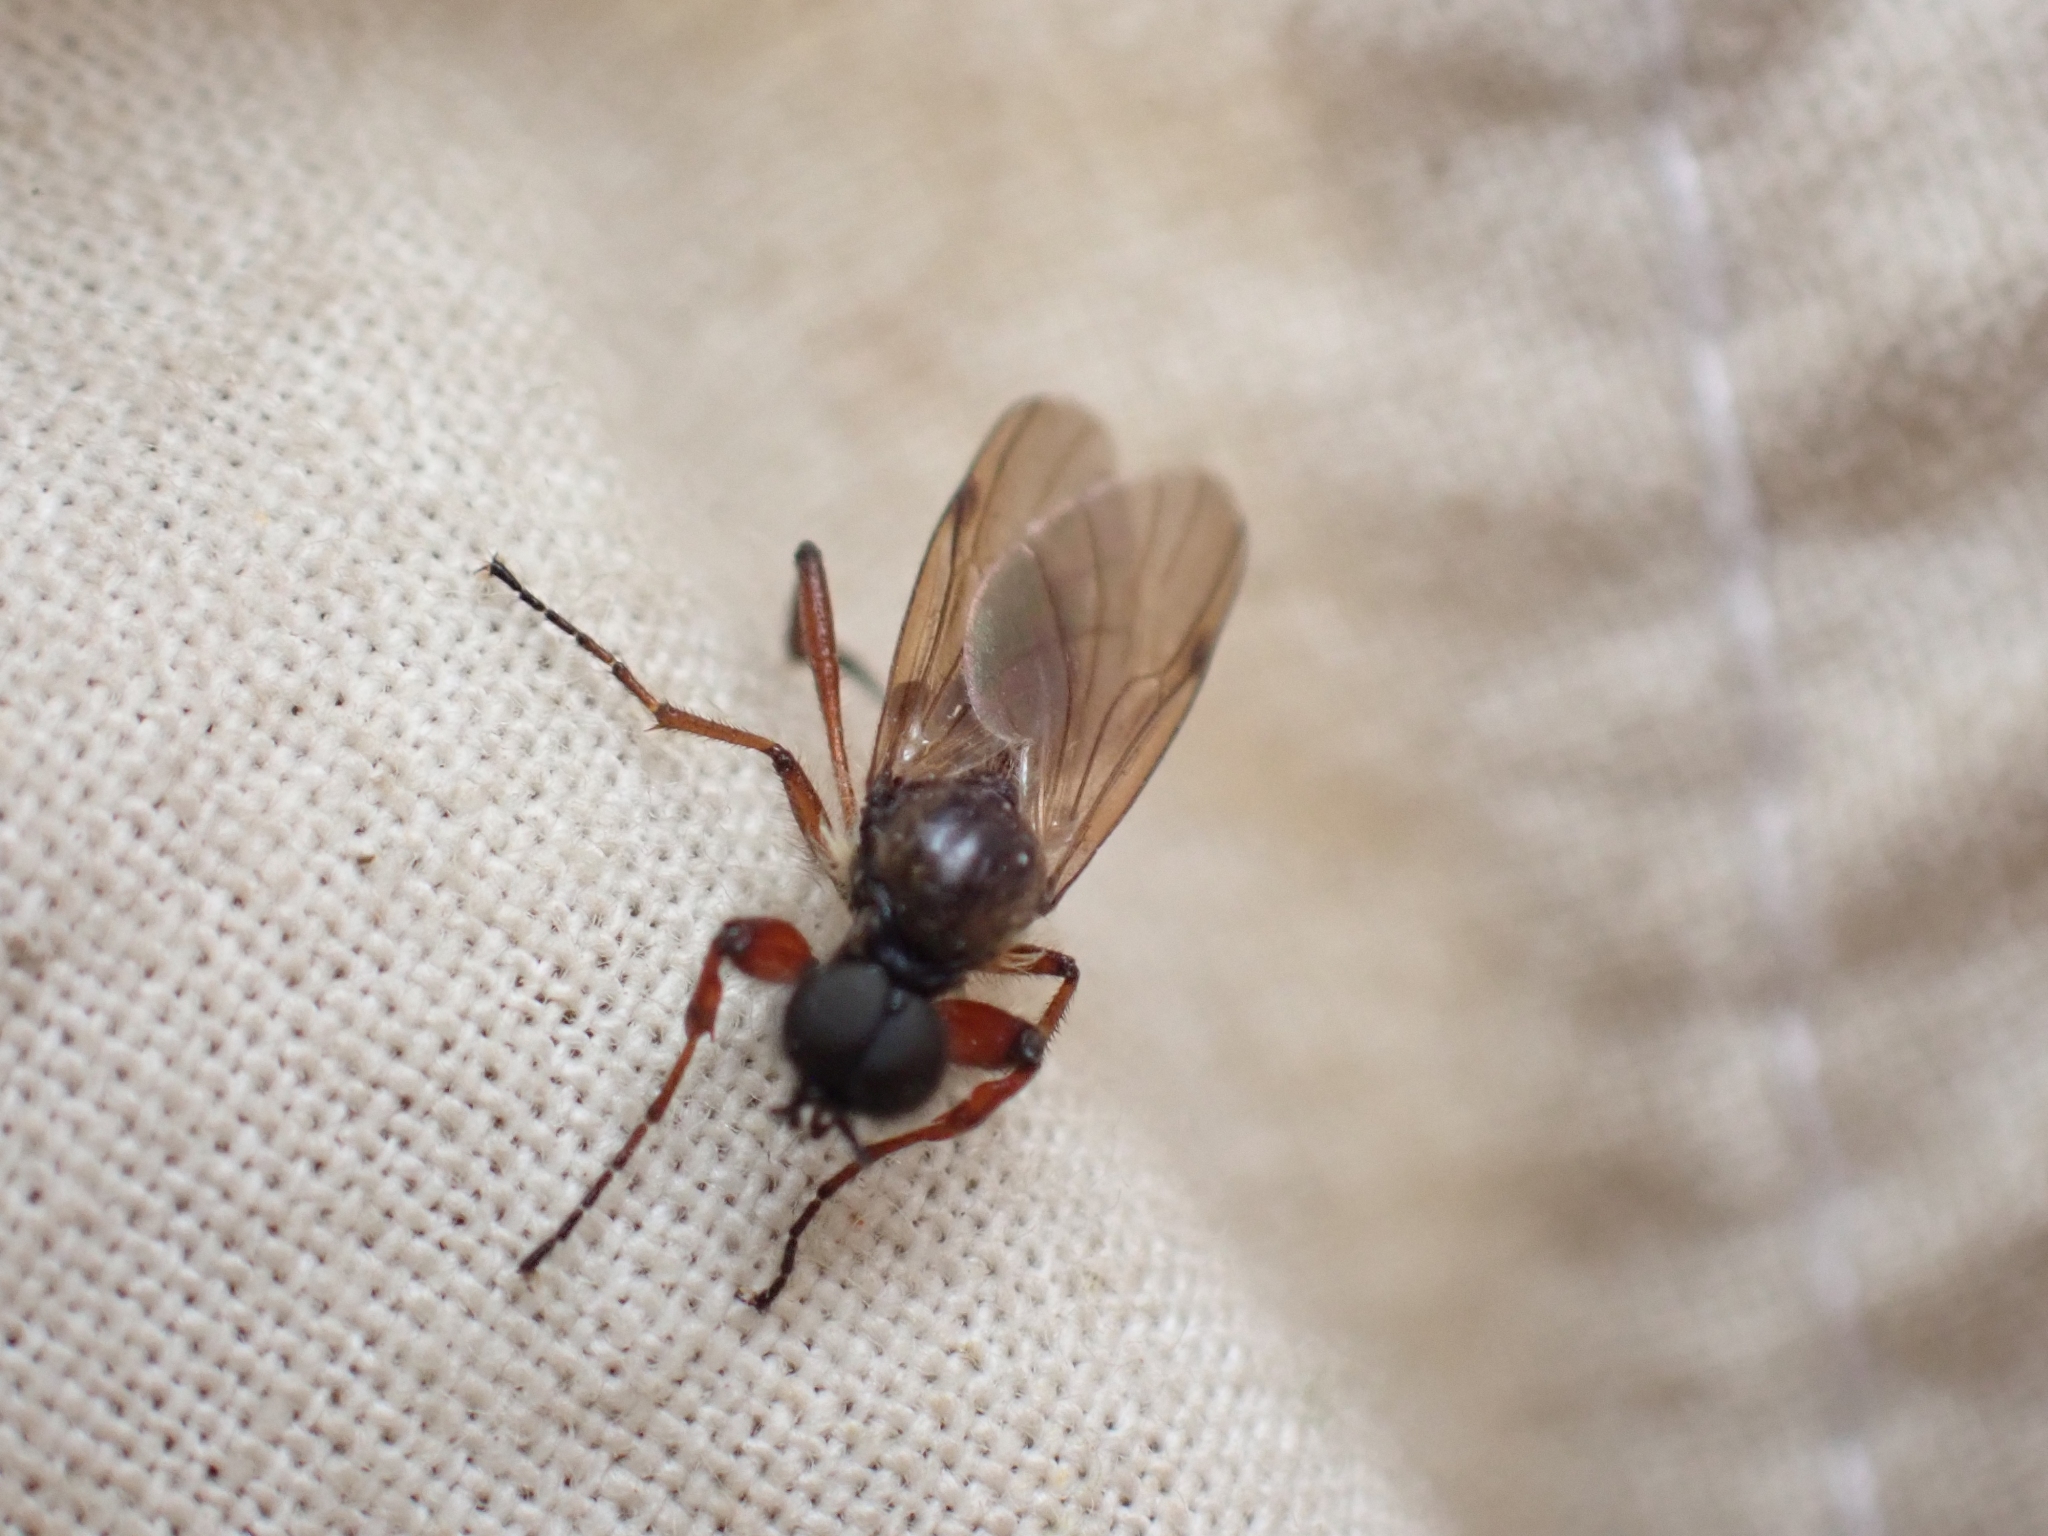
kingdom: Animalia
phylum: Arthropoda
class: Insecta
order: Diptera
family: Bibionidae
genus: Bibio
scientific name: Bibio brunnipes
